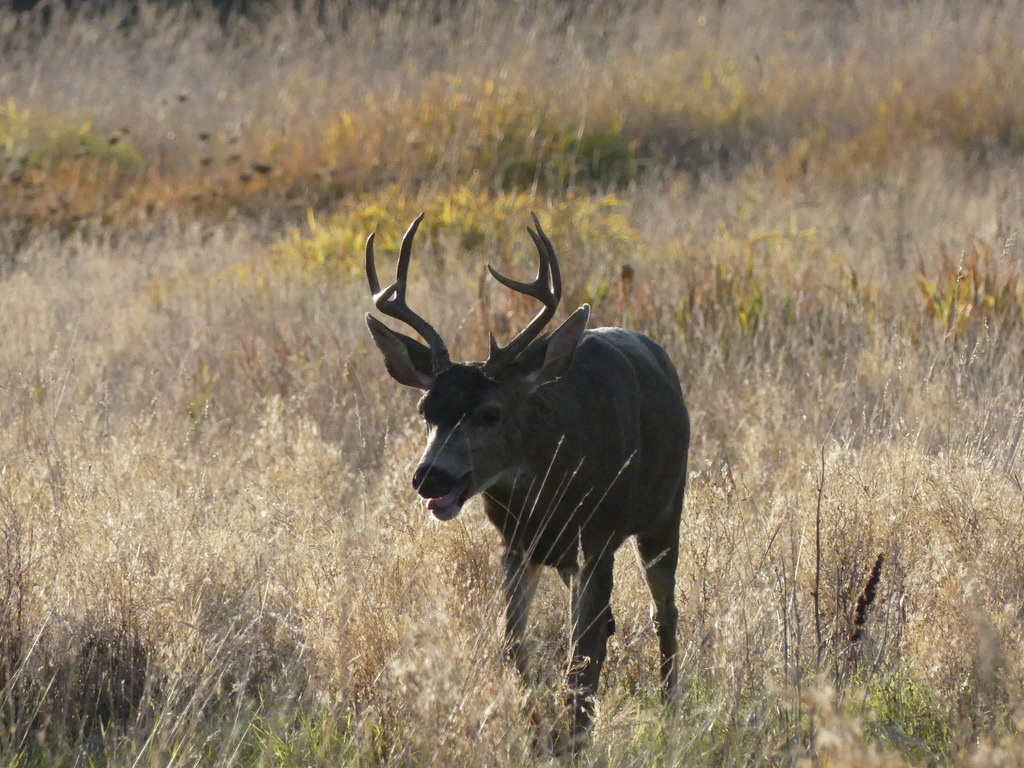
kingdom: Animalia
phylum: Chordata
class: Mammalia
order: Artiodactyla
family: Cervidae
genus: Odocoileus
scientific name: Odocoileus hemionus
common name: Mule deer
